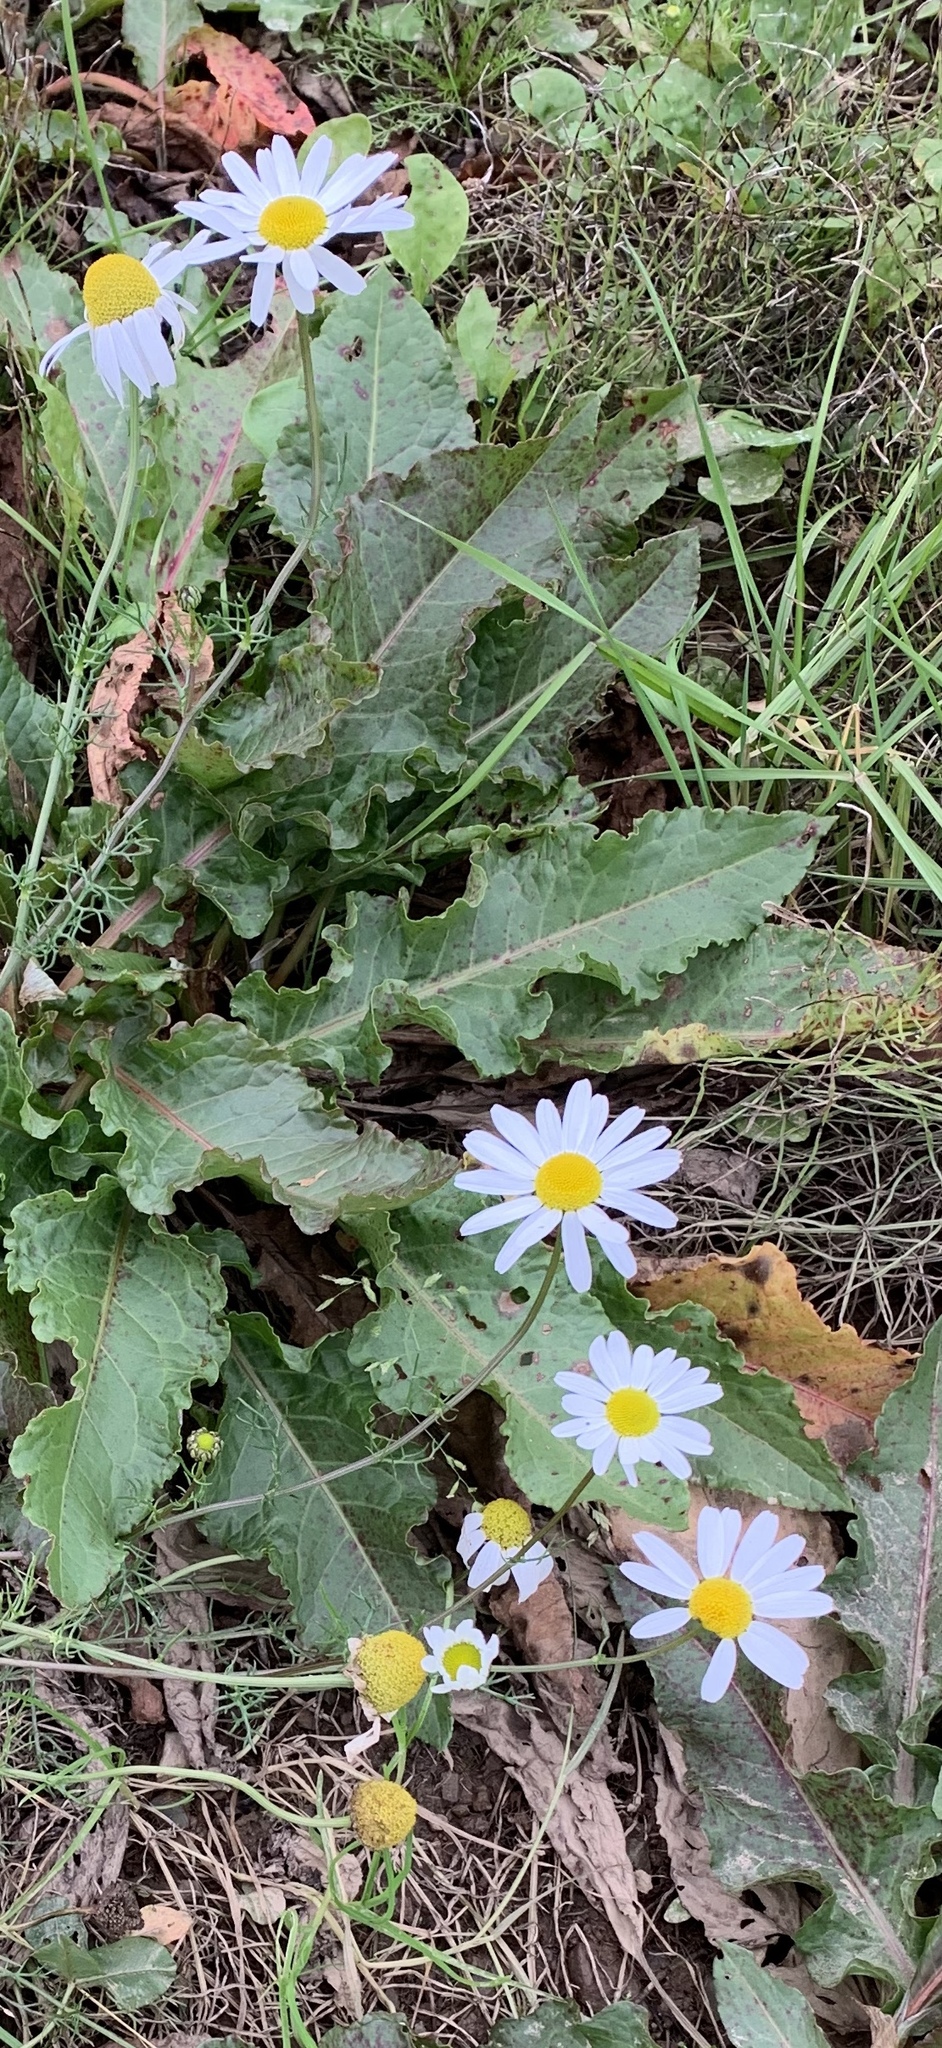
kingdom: Plantae
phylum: Tracheophyta
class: Magnoliopsida
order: Asterales
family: Asteraceae
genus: Tripleurospermum
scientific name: Tripleurospermum inodorum
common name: Scentless mayweed
